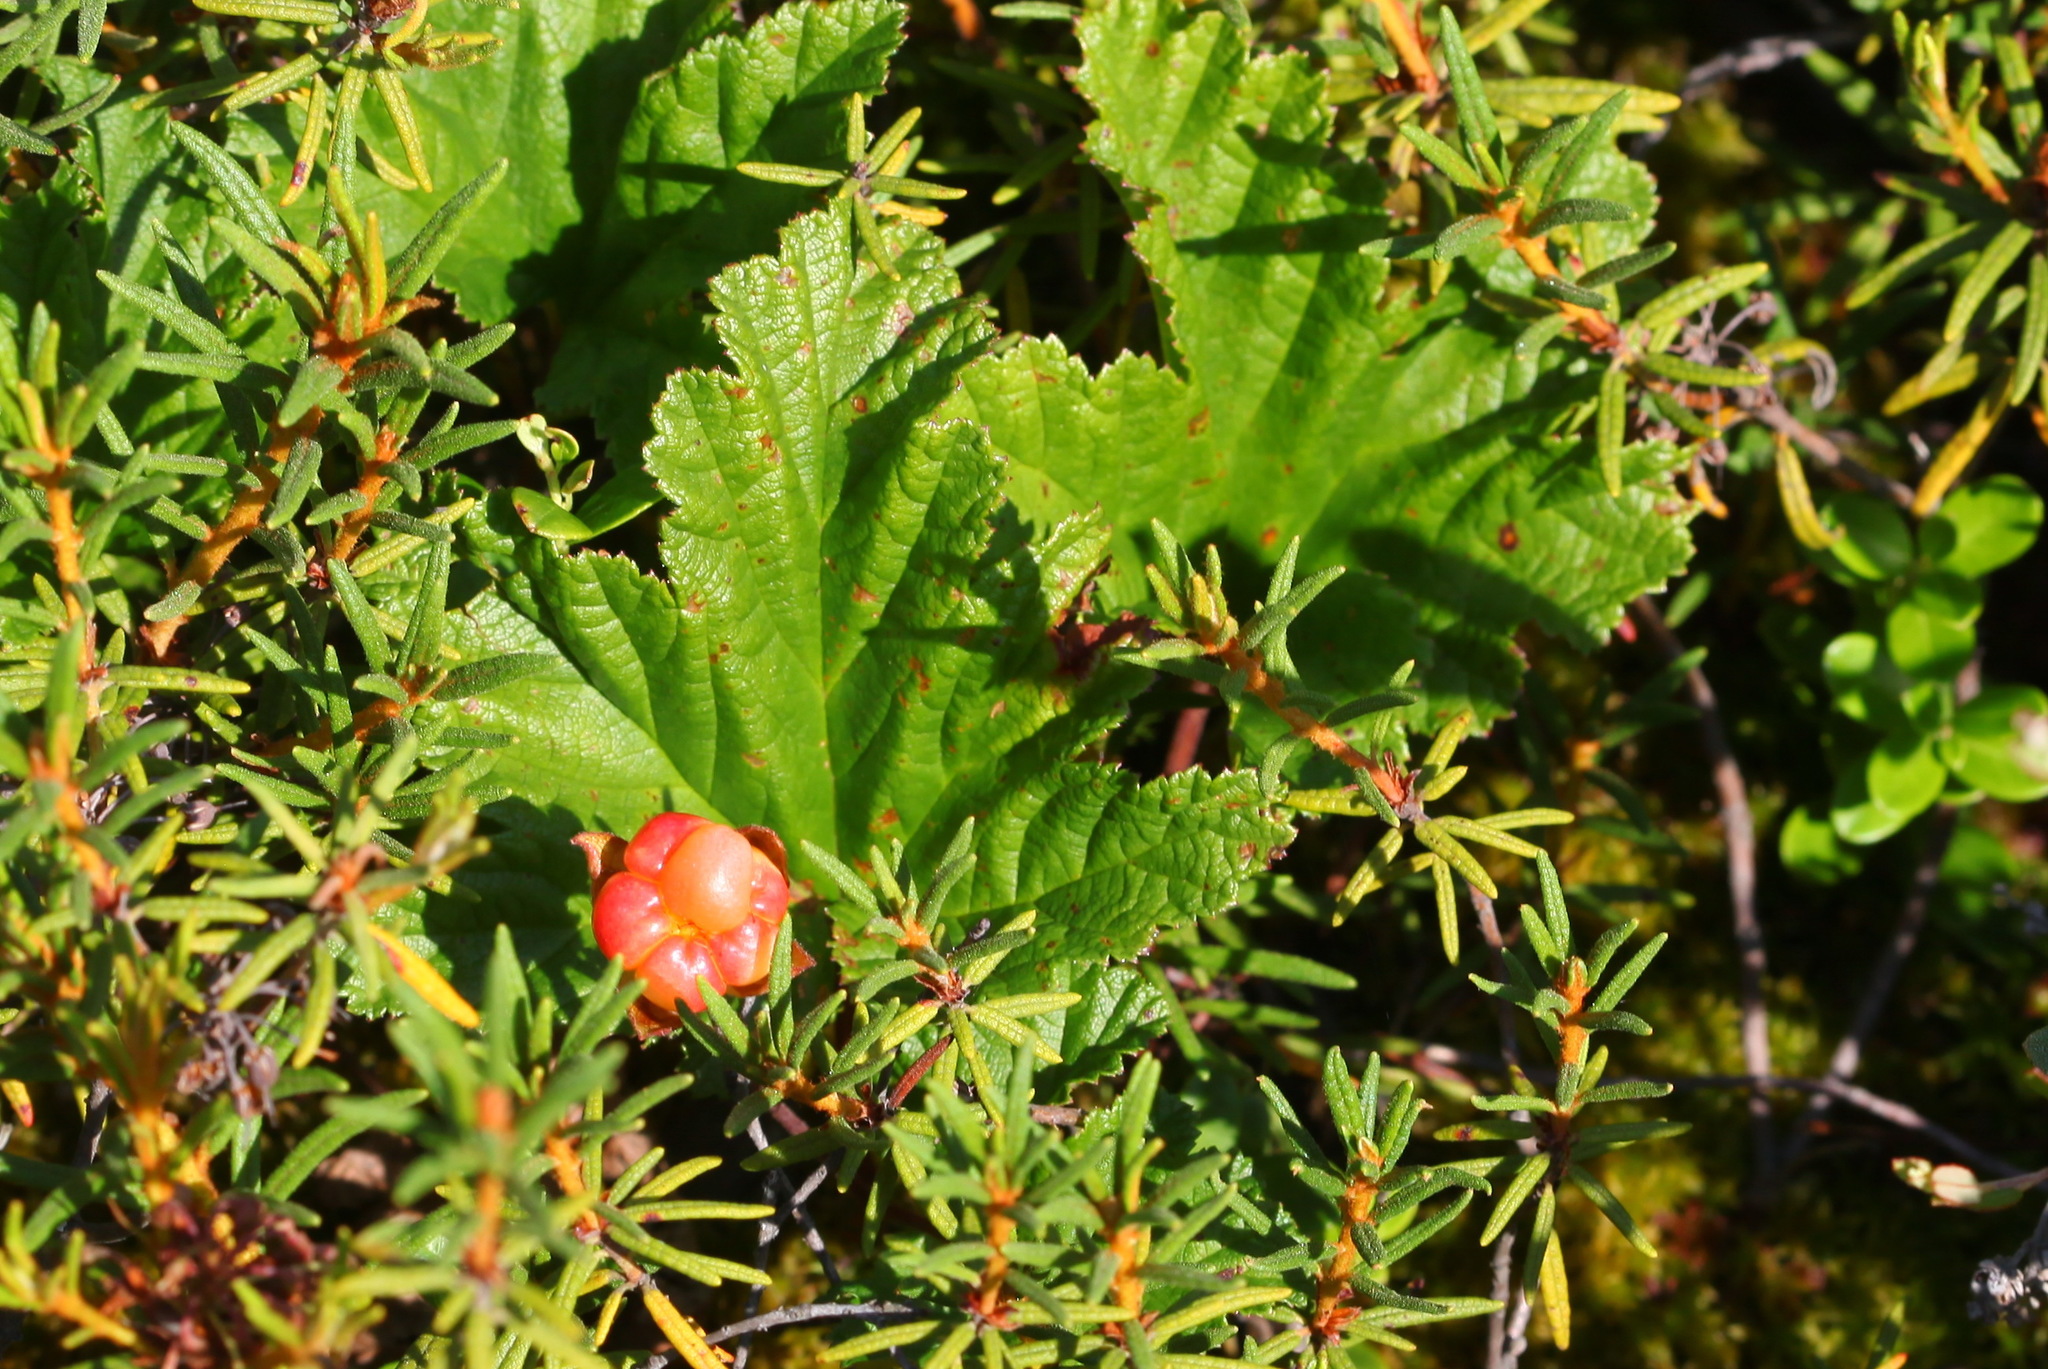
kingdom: Plantae
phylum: Tracheophyta
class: Magnoliopsida
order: Rosales
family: Rosaceae
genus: Rubus
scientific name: Rubus chamaemorus
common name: Cloudberry
